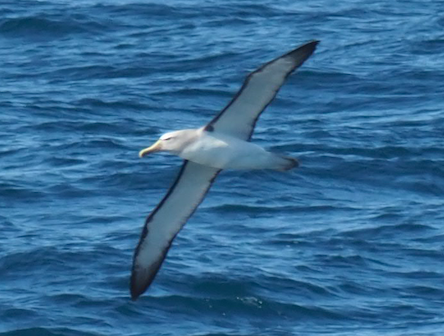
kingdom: Animalia
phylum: Chordata
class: Aves
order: Procellariiformes
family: Diomedeidae
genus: Thalassarche
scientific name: Thalassarche salvini
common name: Salvin's albatross
